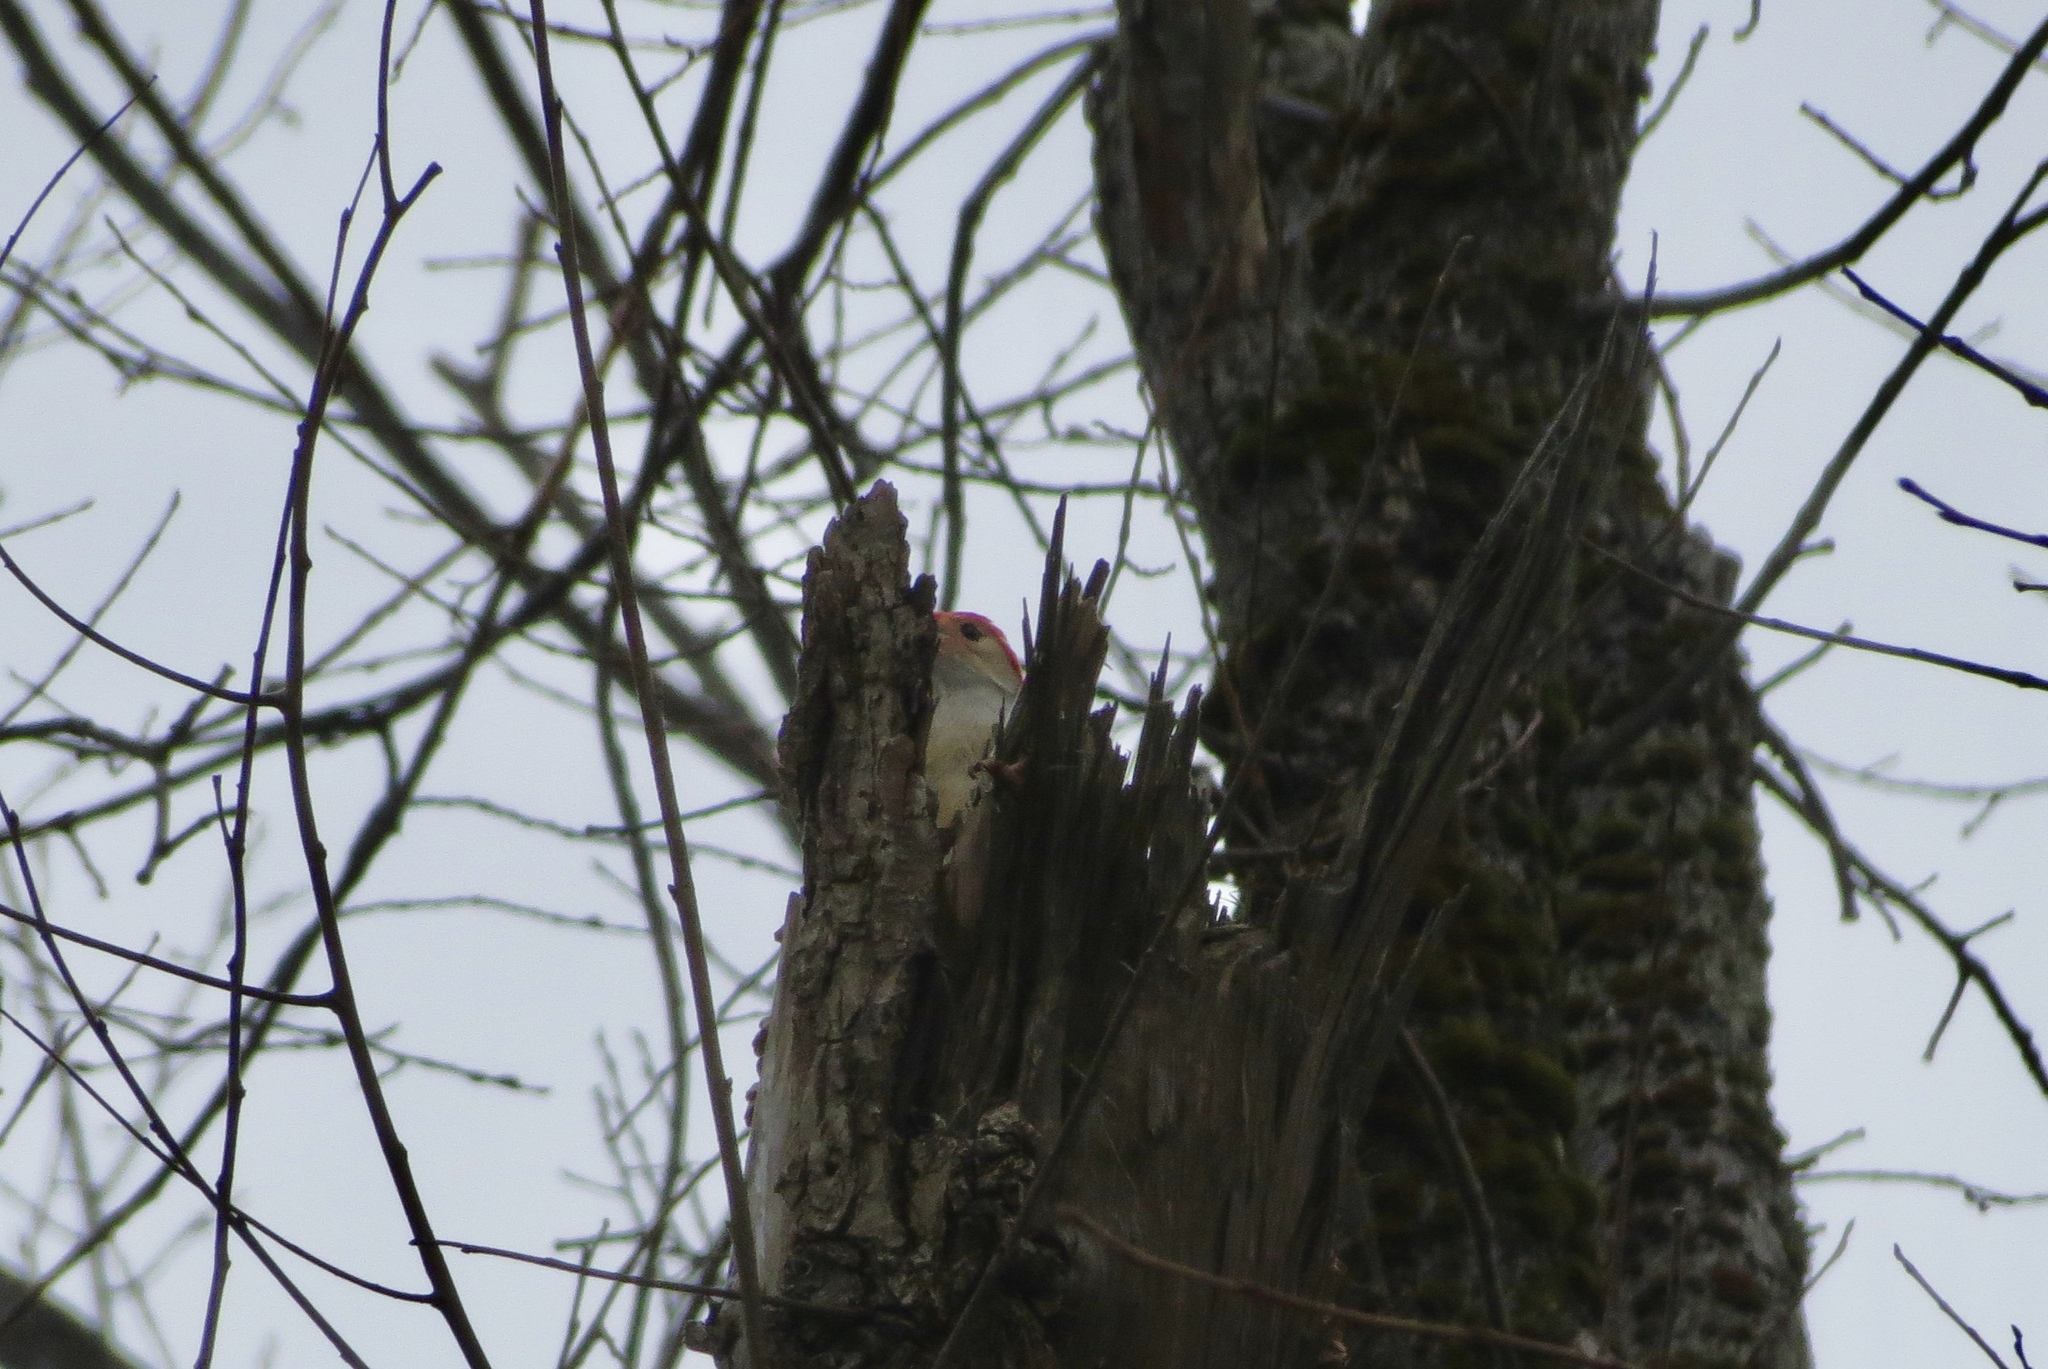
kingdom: Animalia
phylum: Chordata
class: Aves
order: Piciformes
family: Picidae
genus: Melanerpes
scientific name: Melanerpes carolinus
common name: Red-bellied woodpecker
